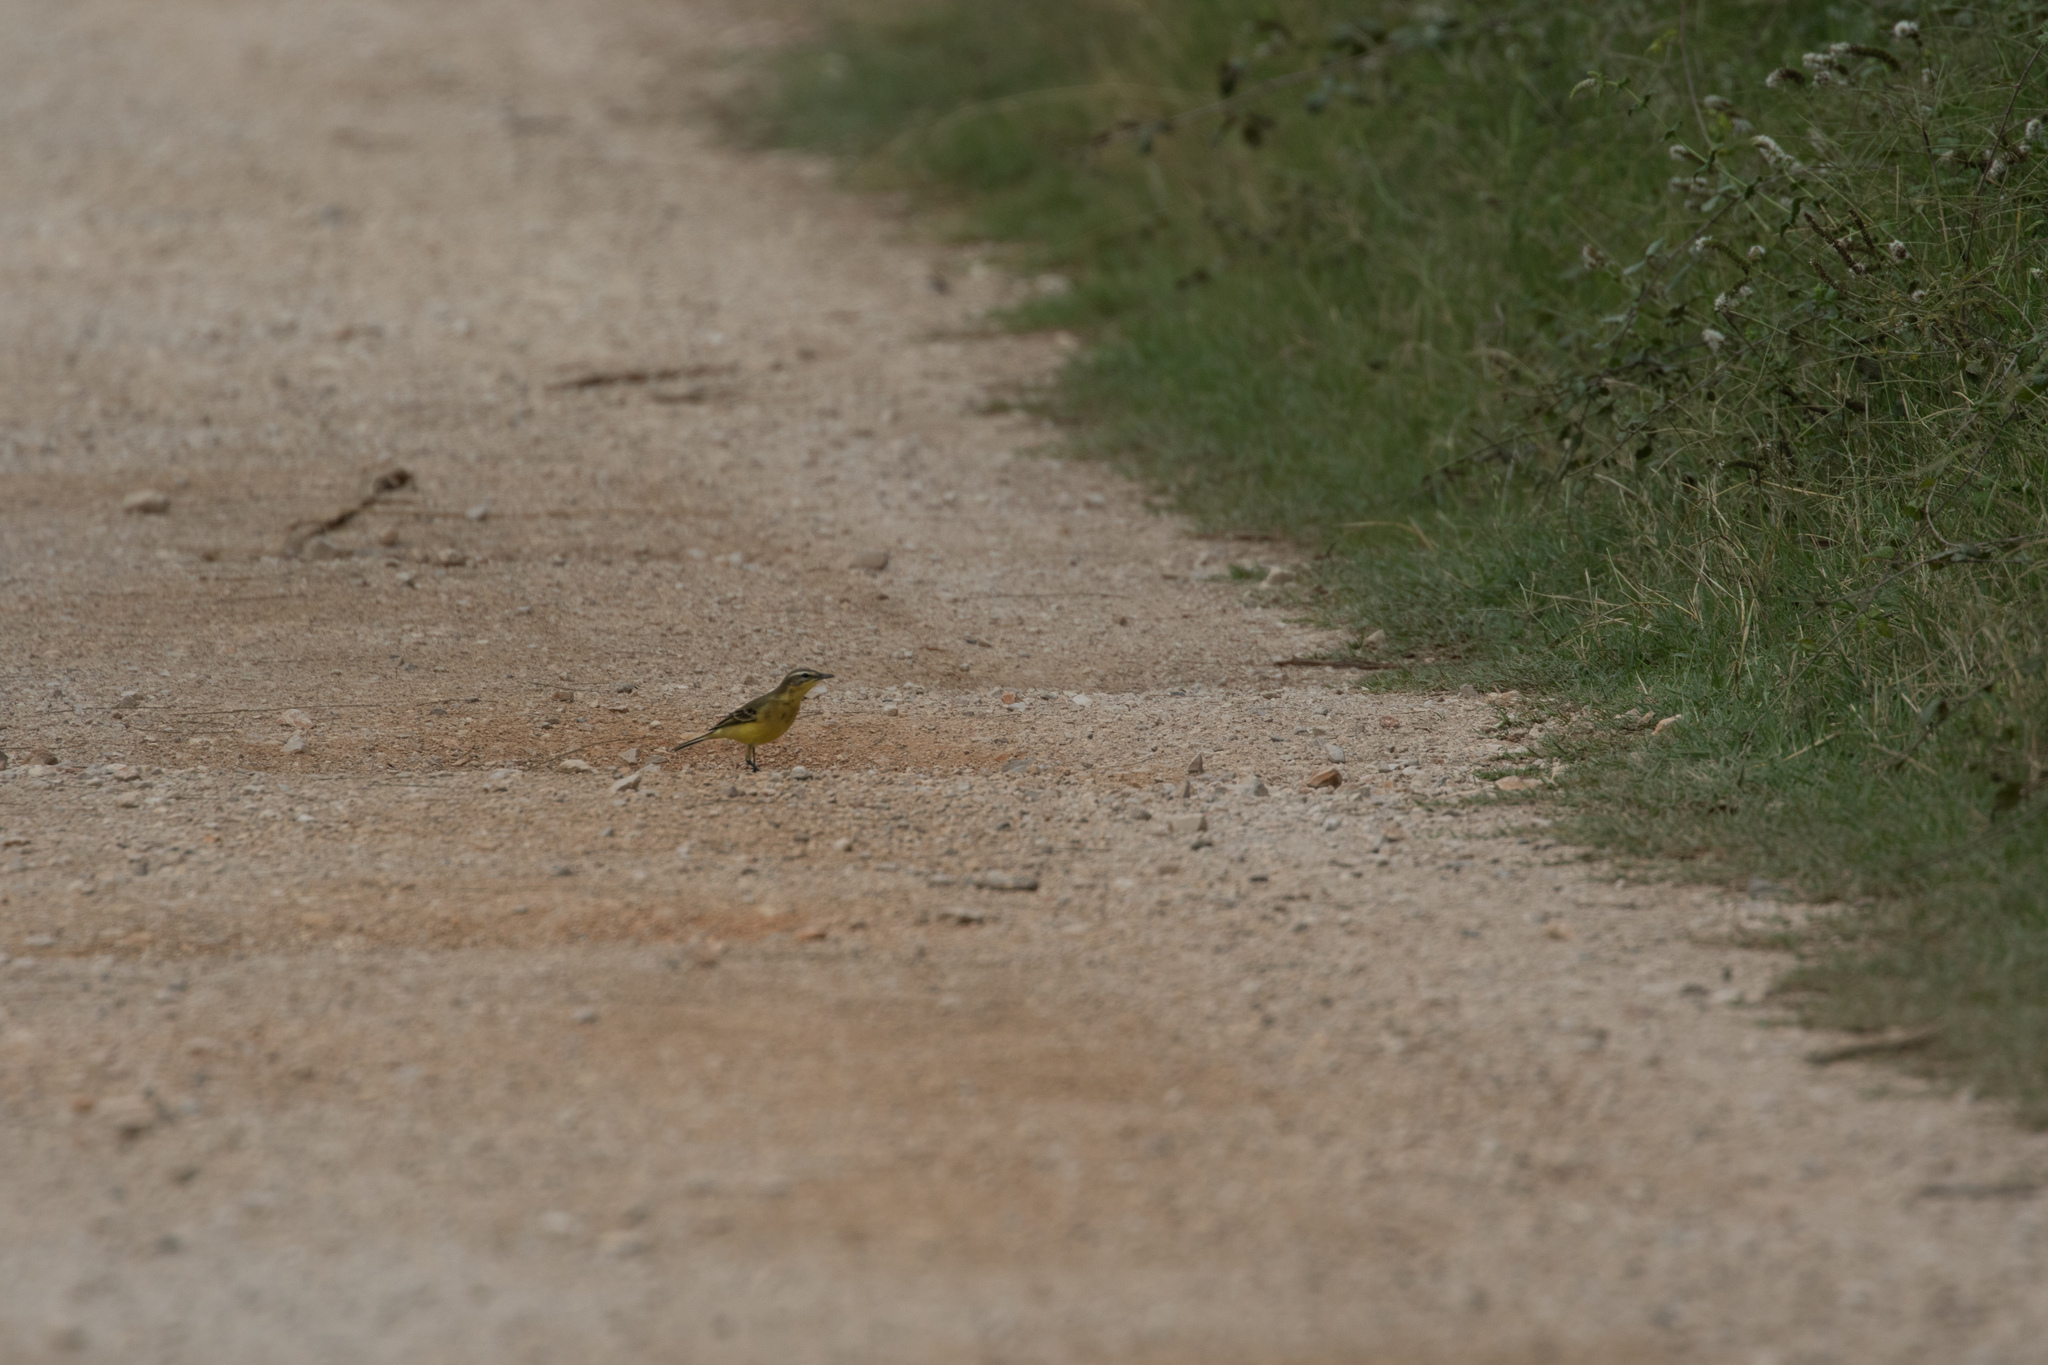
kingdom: Animalia
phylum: Chordata
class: Aves
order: Passeriformes
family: Motacillidae
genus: Motacilla
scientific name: Motacilla flava
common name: Western yellow wagtail
